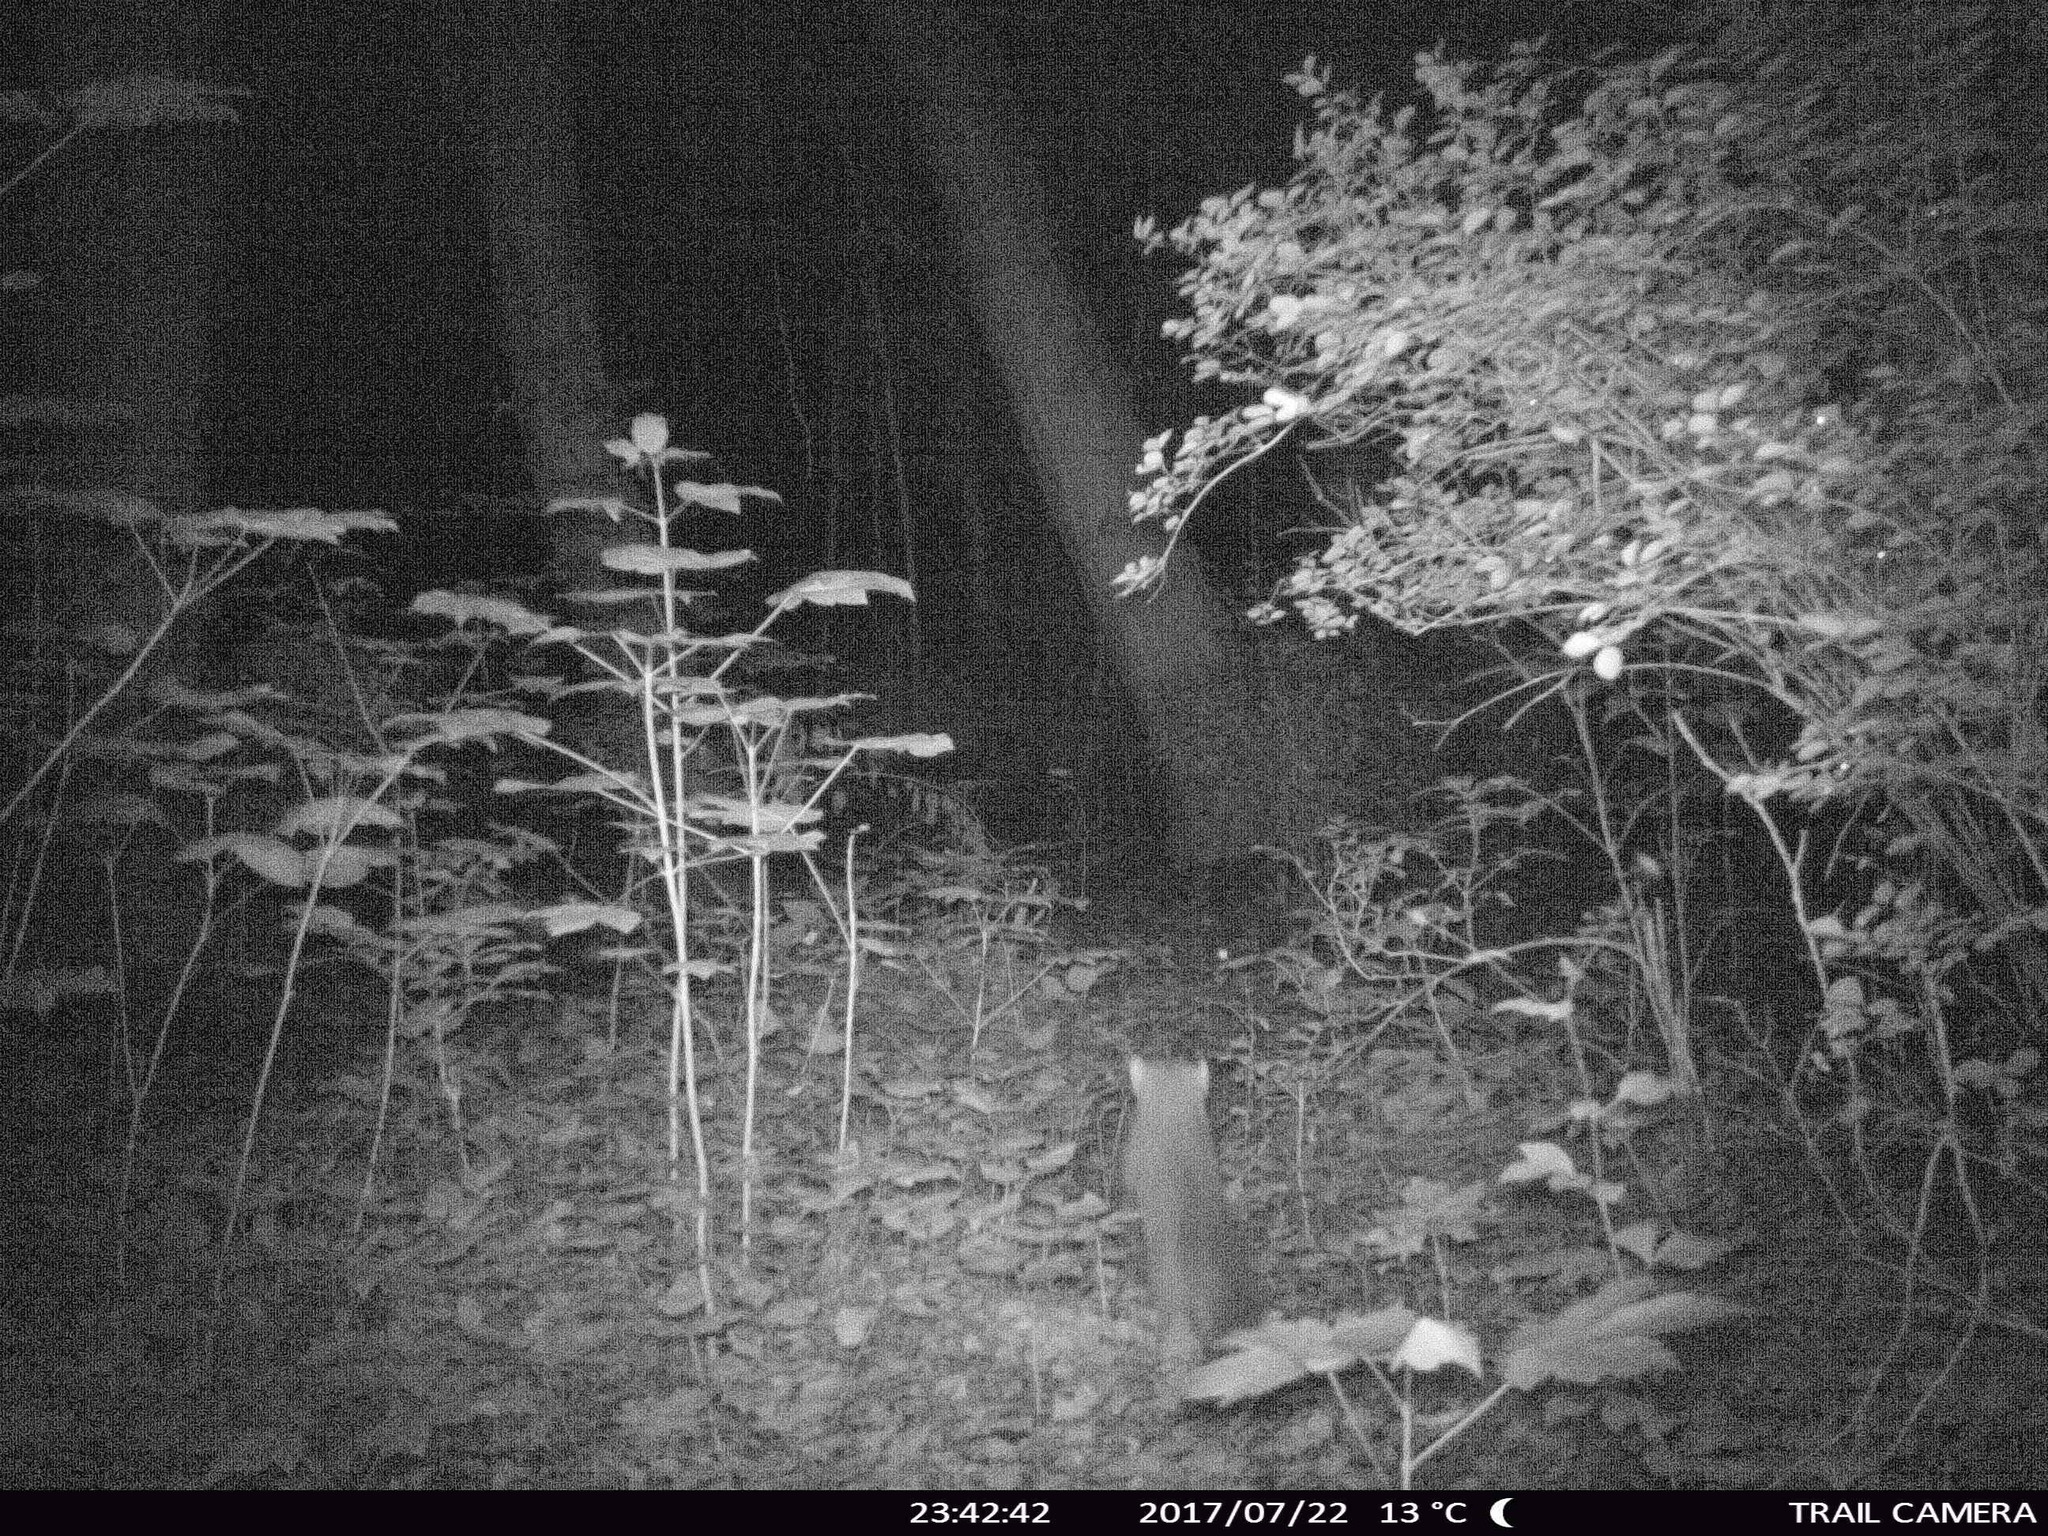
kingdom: Animalia
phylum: Chordata
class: Mammalia
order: Carnivora
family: Mustelidae
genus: Martes
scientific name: Martes foina
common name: Beech marten
